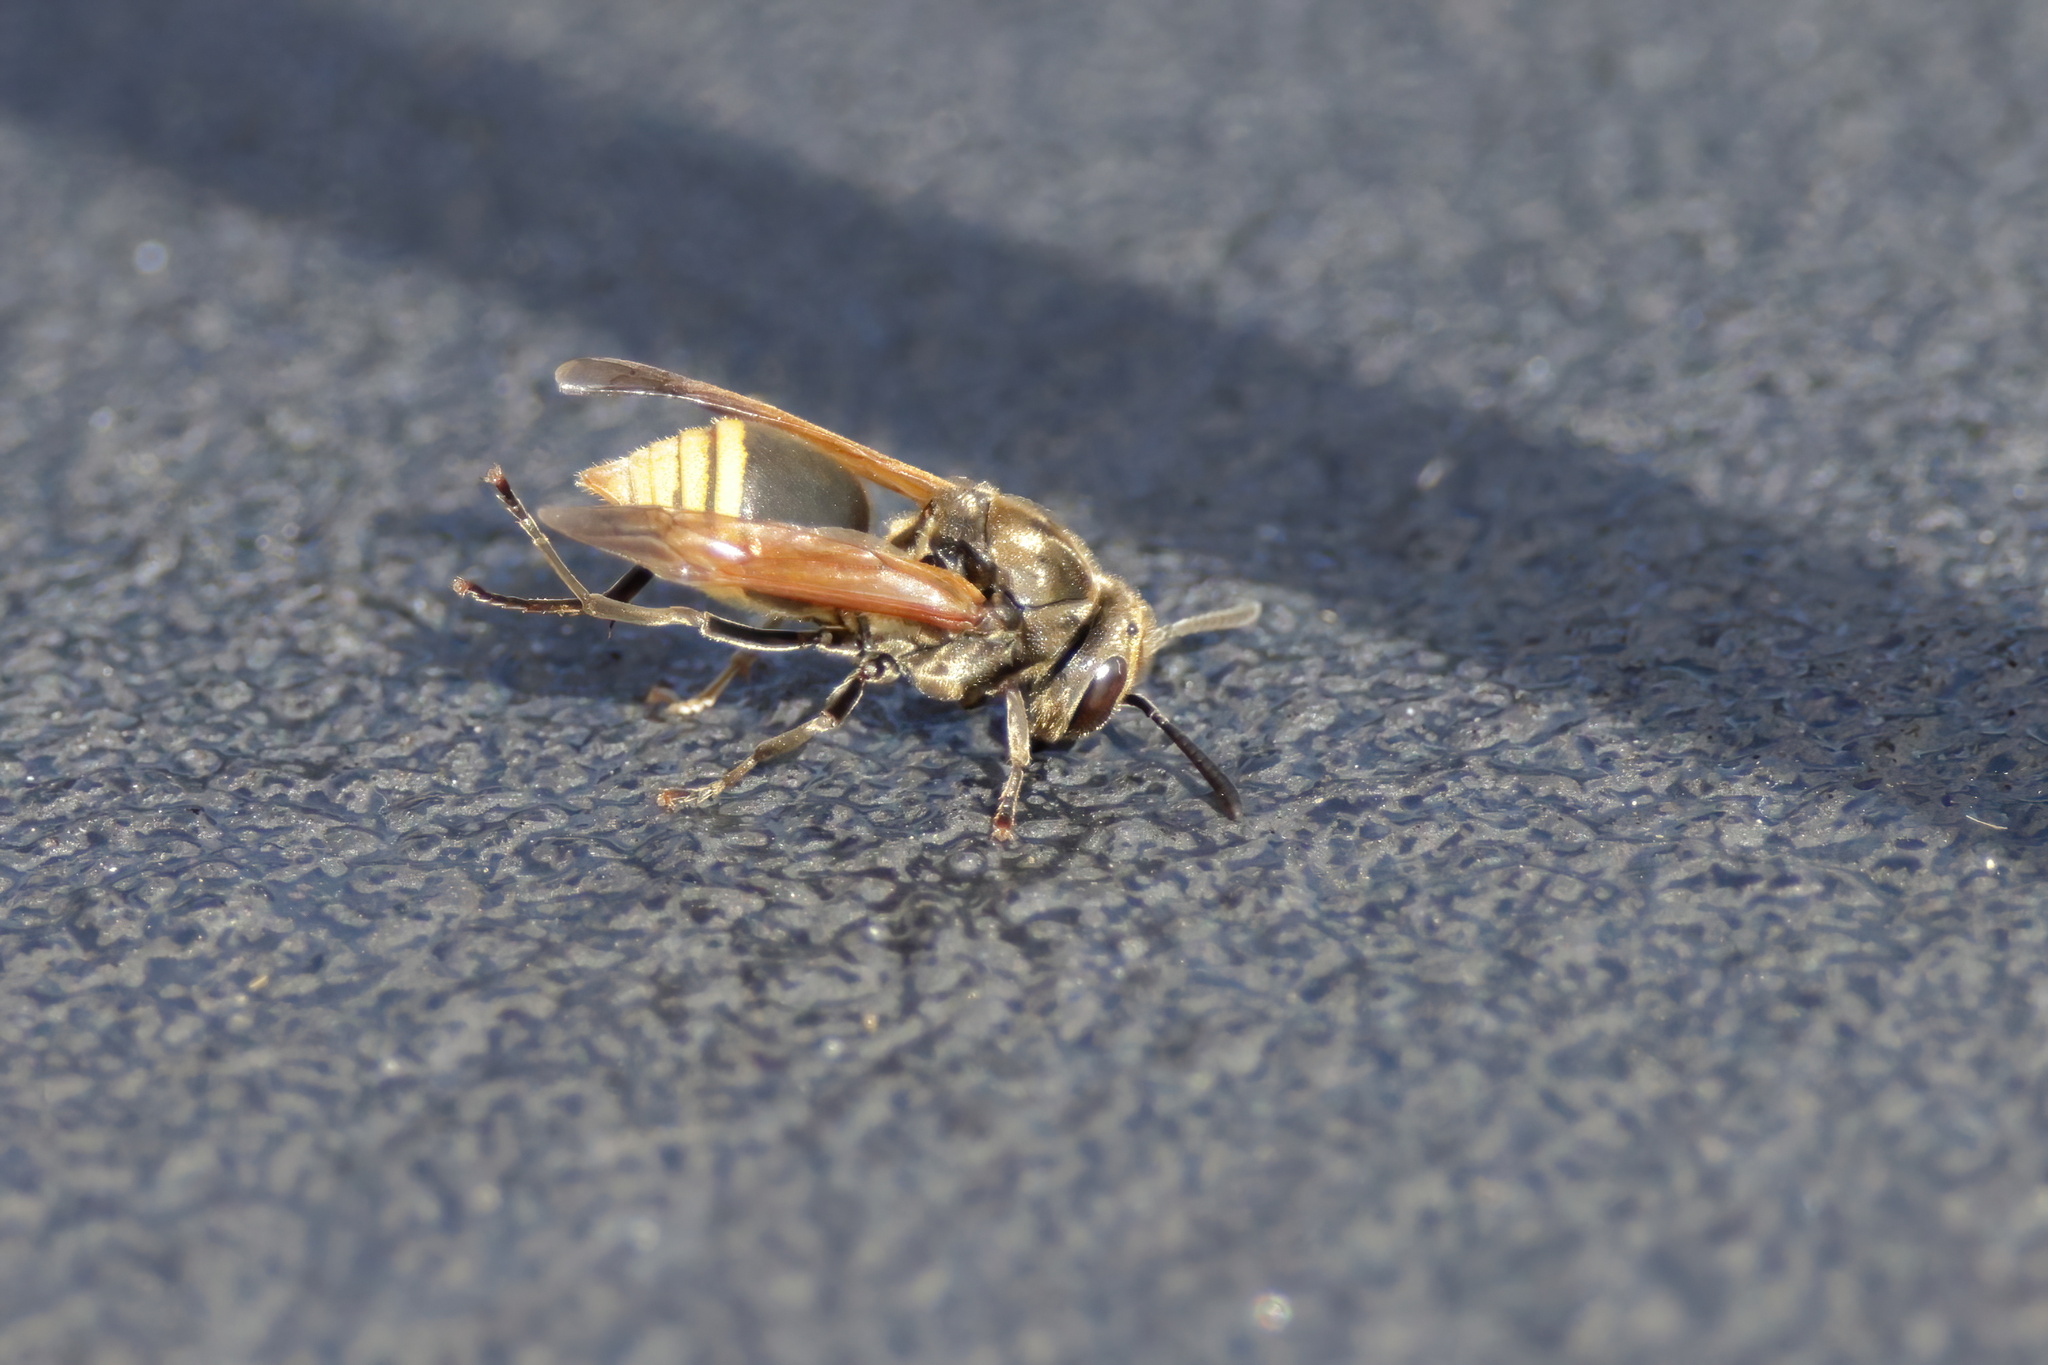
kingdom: Animalia
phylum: Arthropoda
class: Insecta
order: Hymenoptera
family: Vespidae
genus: Brachygastra
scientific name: Brachygastra mellifica
